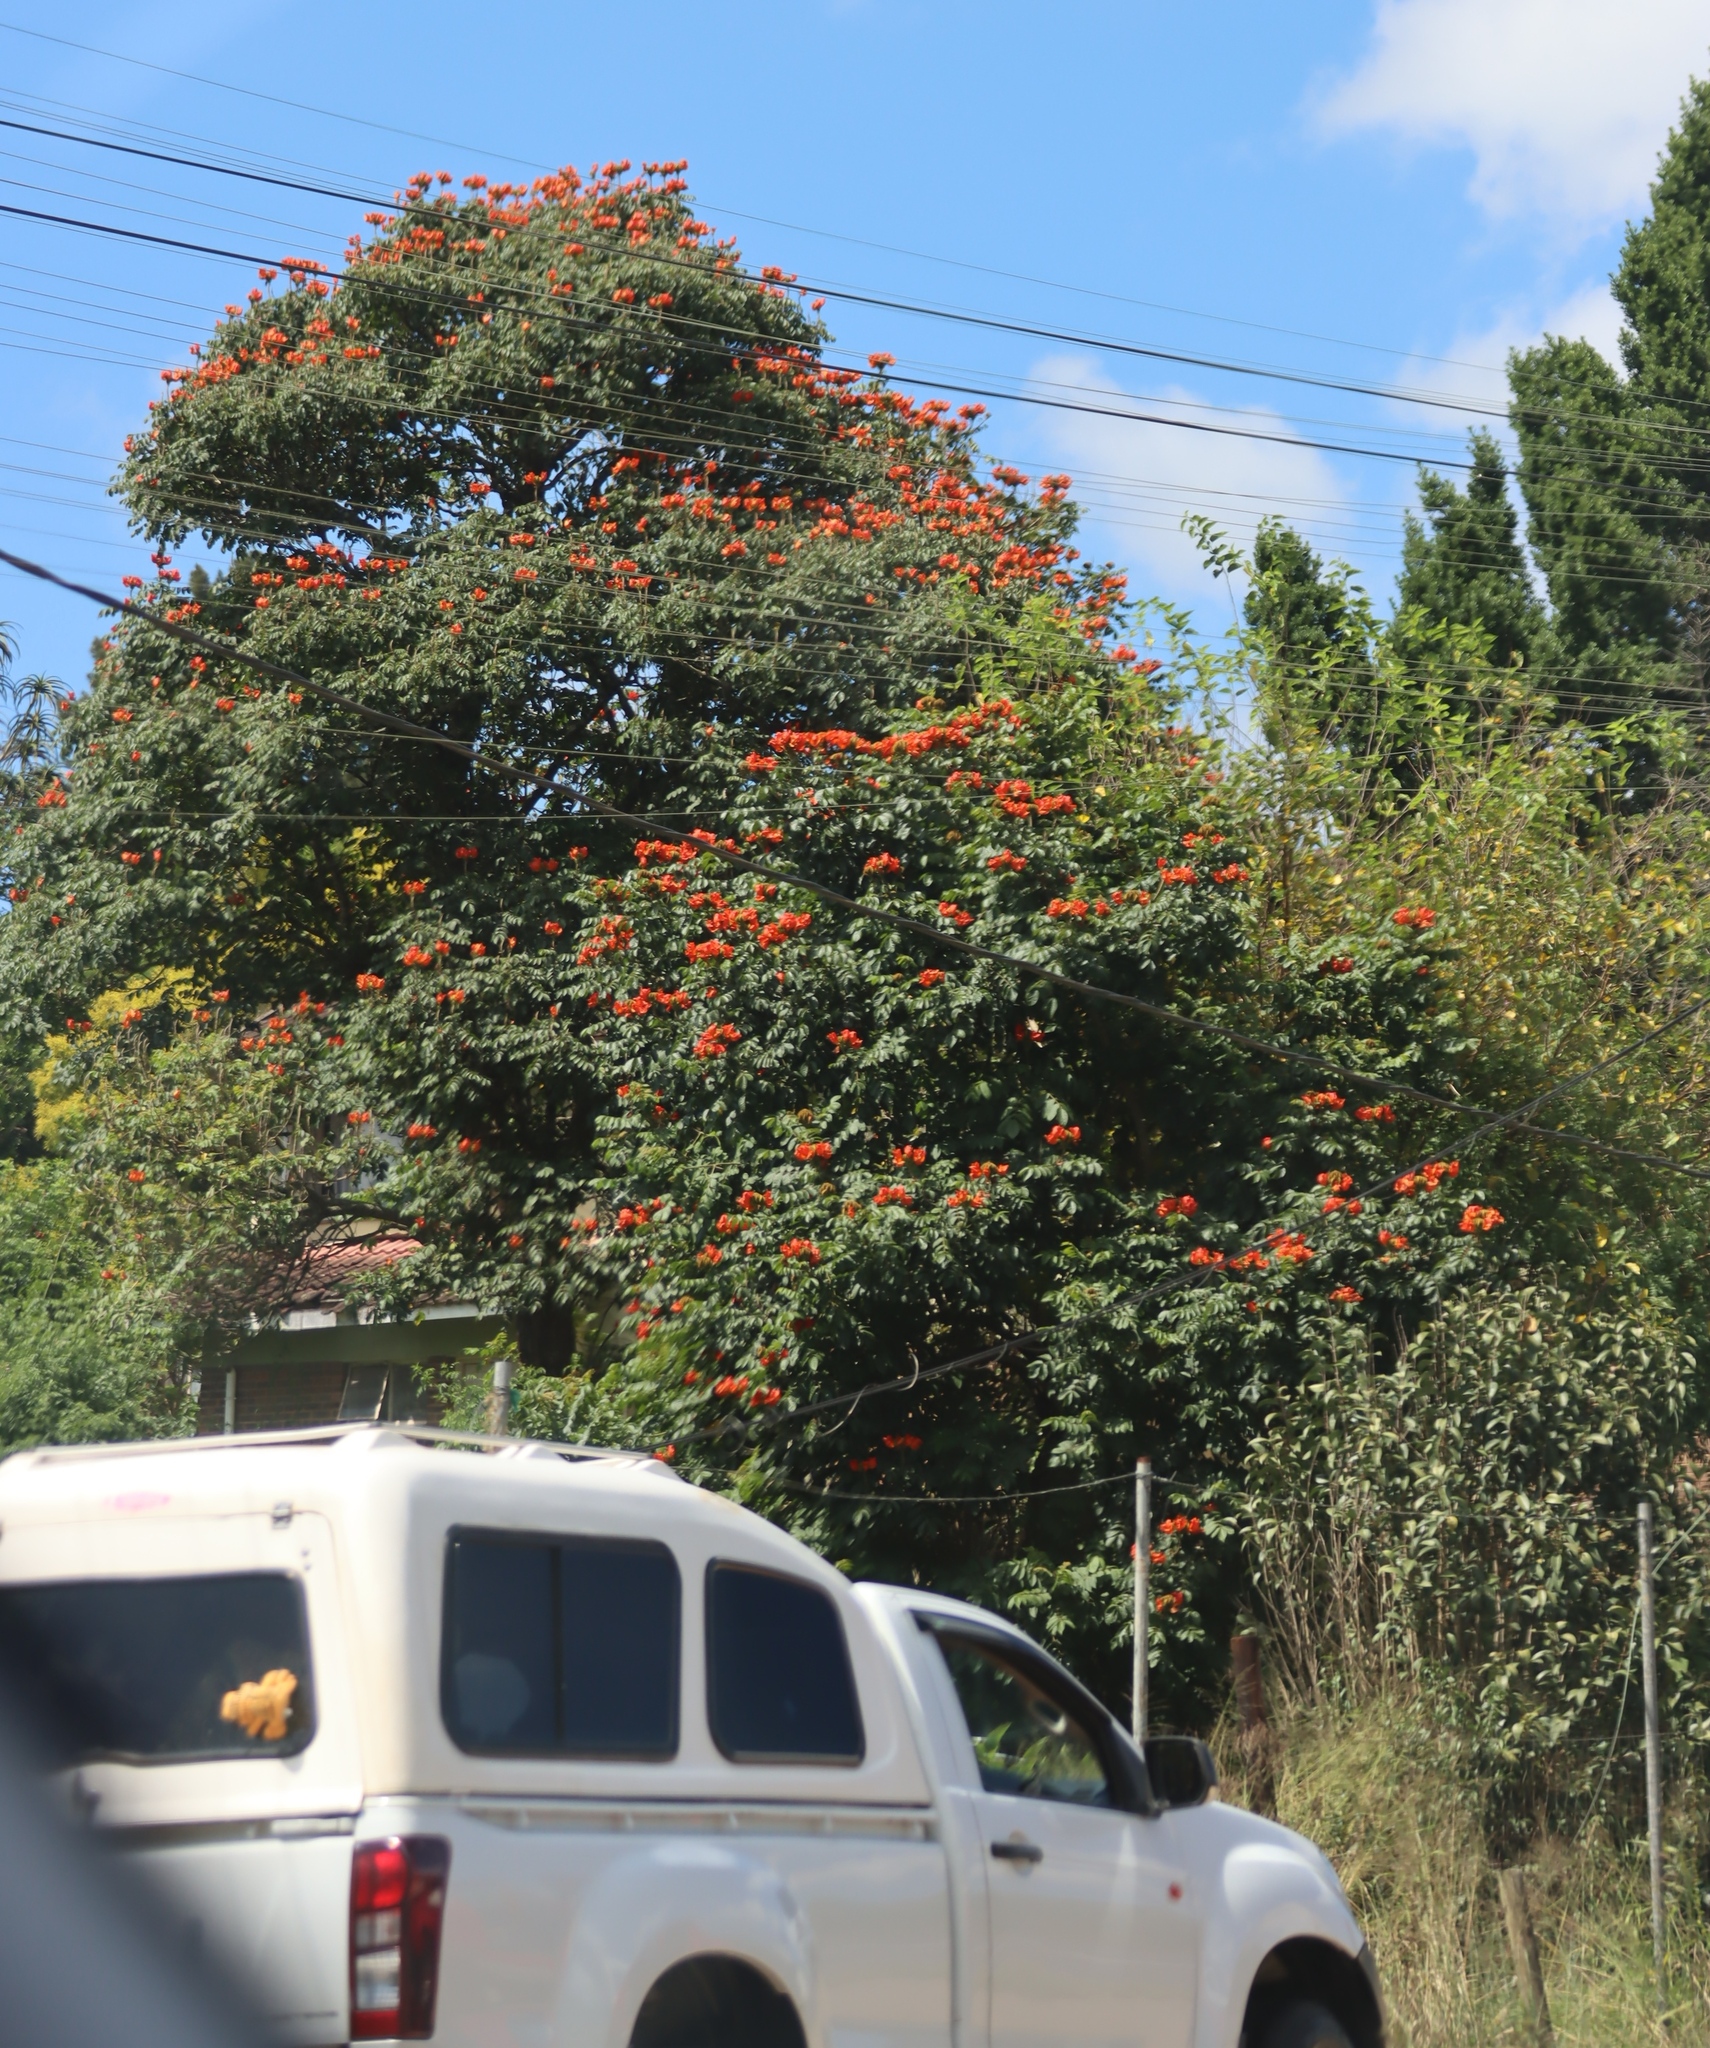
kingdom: Plantae
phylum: Tracheophyta
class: Magnoliopsida
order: Lamiales
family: Bignoniaceae
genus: Spathodea
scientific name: Spathodea campanulata
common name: African tuliptree
